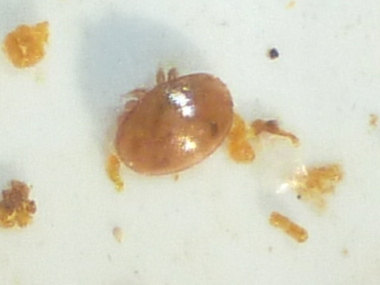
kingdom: Animalia
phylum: Arthropoda
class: Arachnida
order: Mesostigmata
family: Varroidae
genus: Varroa
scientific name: Varroa destructor
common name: Honey bee mite
